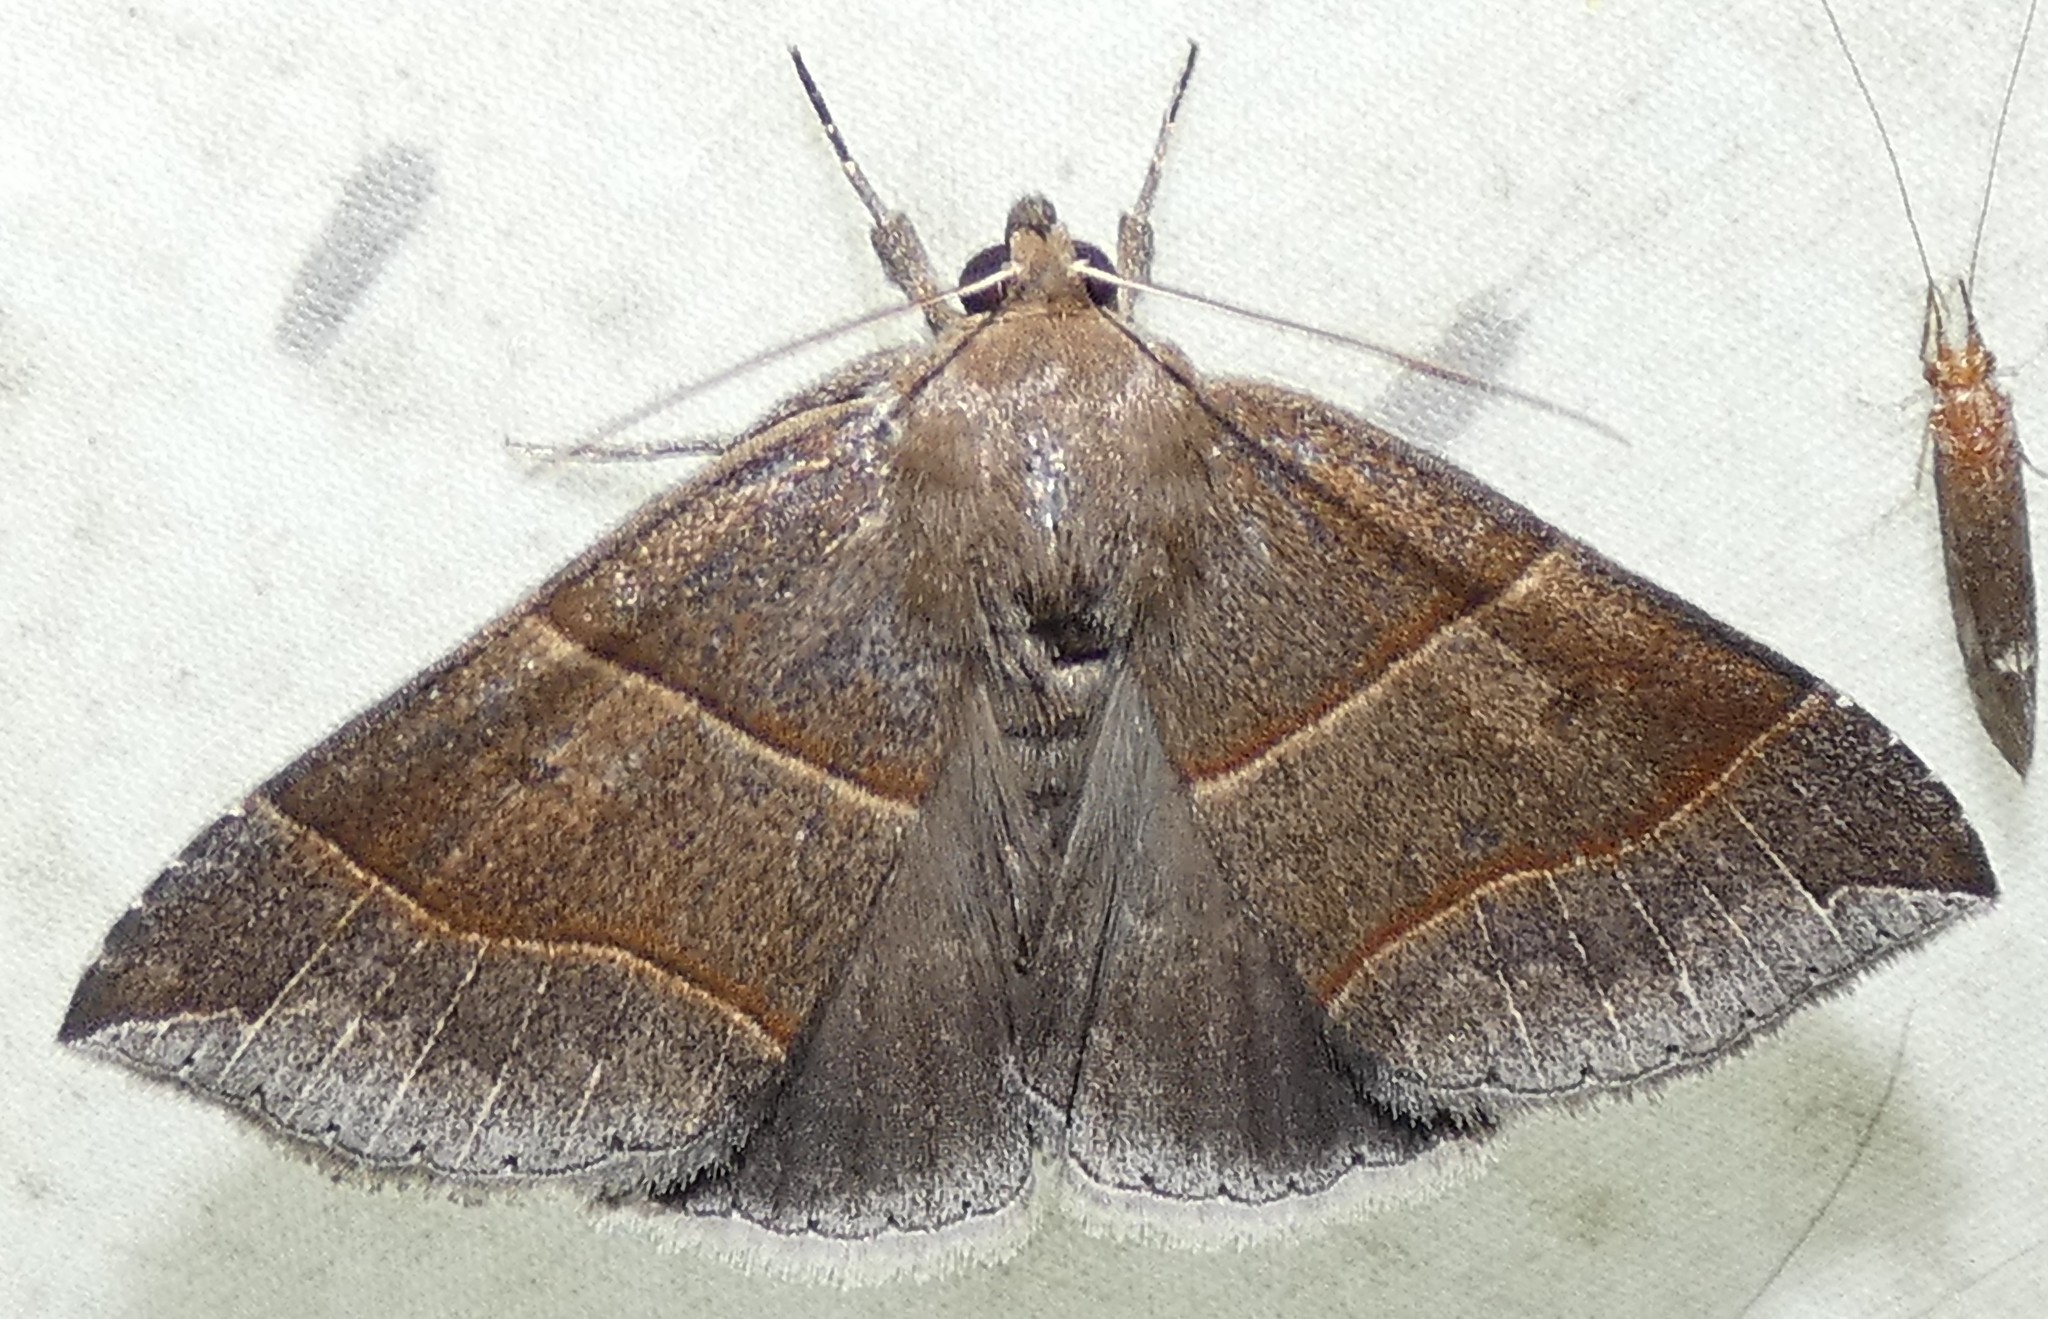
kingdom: Animalia
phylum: Arthropoda
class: Insecta
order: Lepidoptera
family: Erebidae
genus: Parallelia
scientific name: Parallelia bistriaris
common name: Maple looper moth
